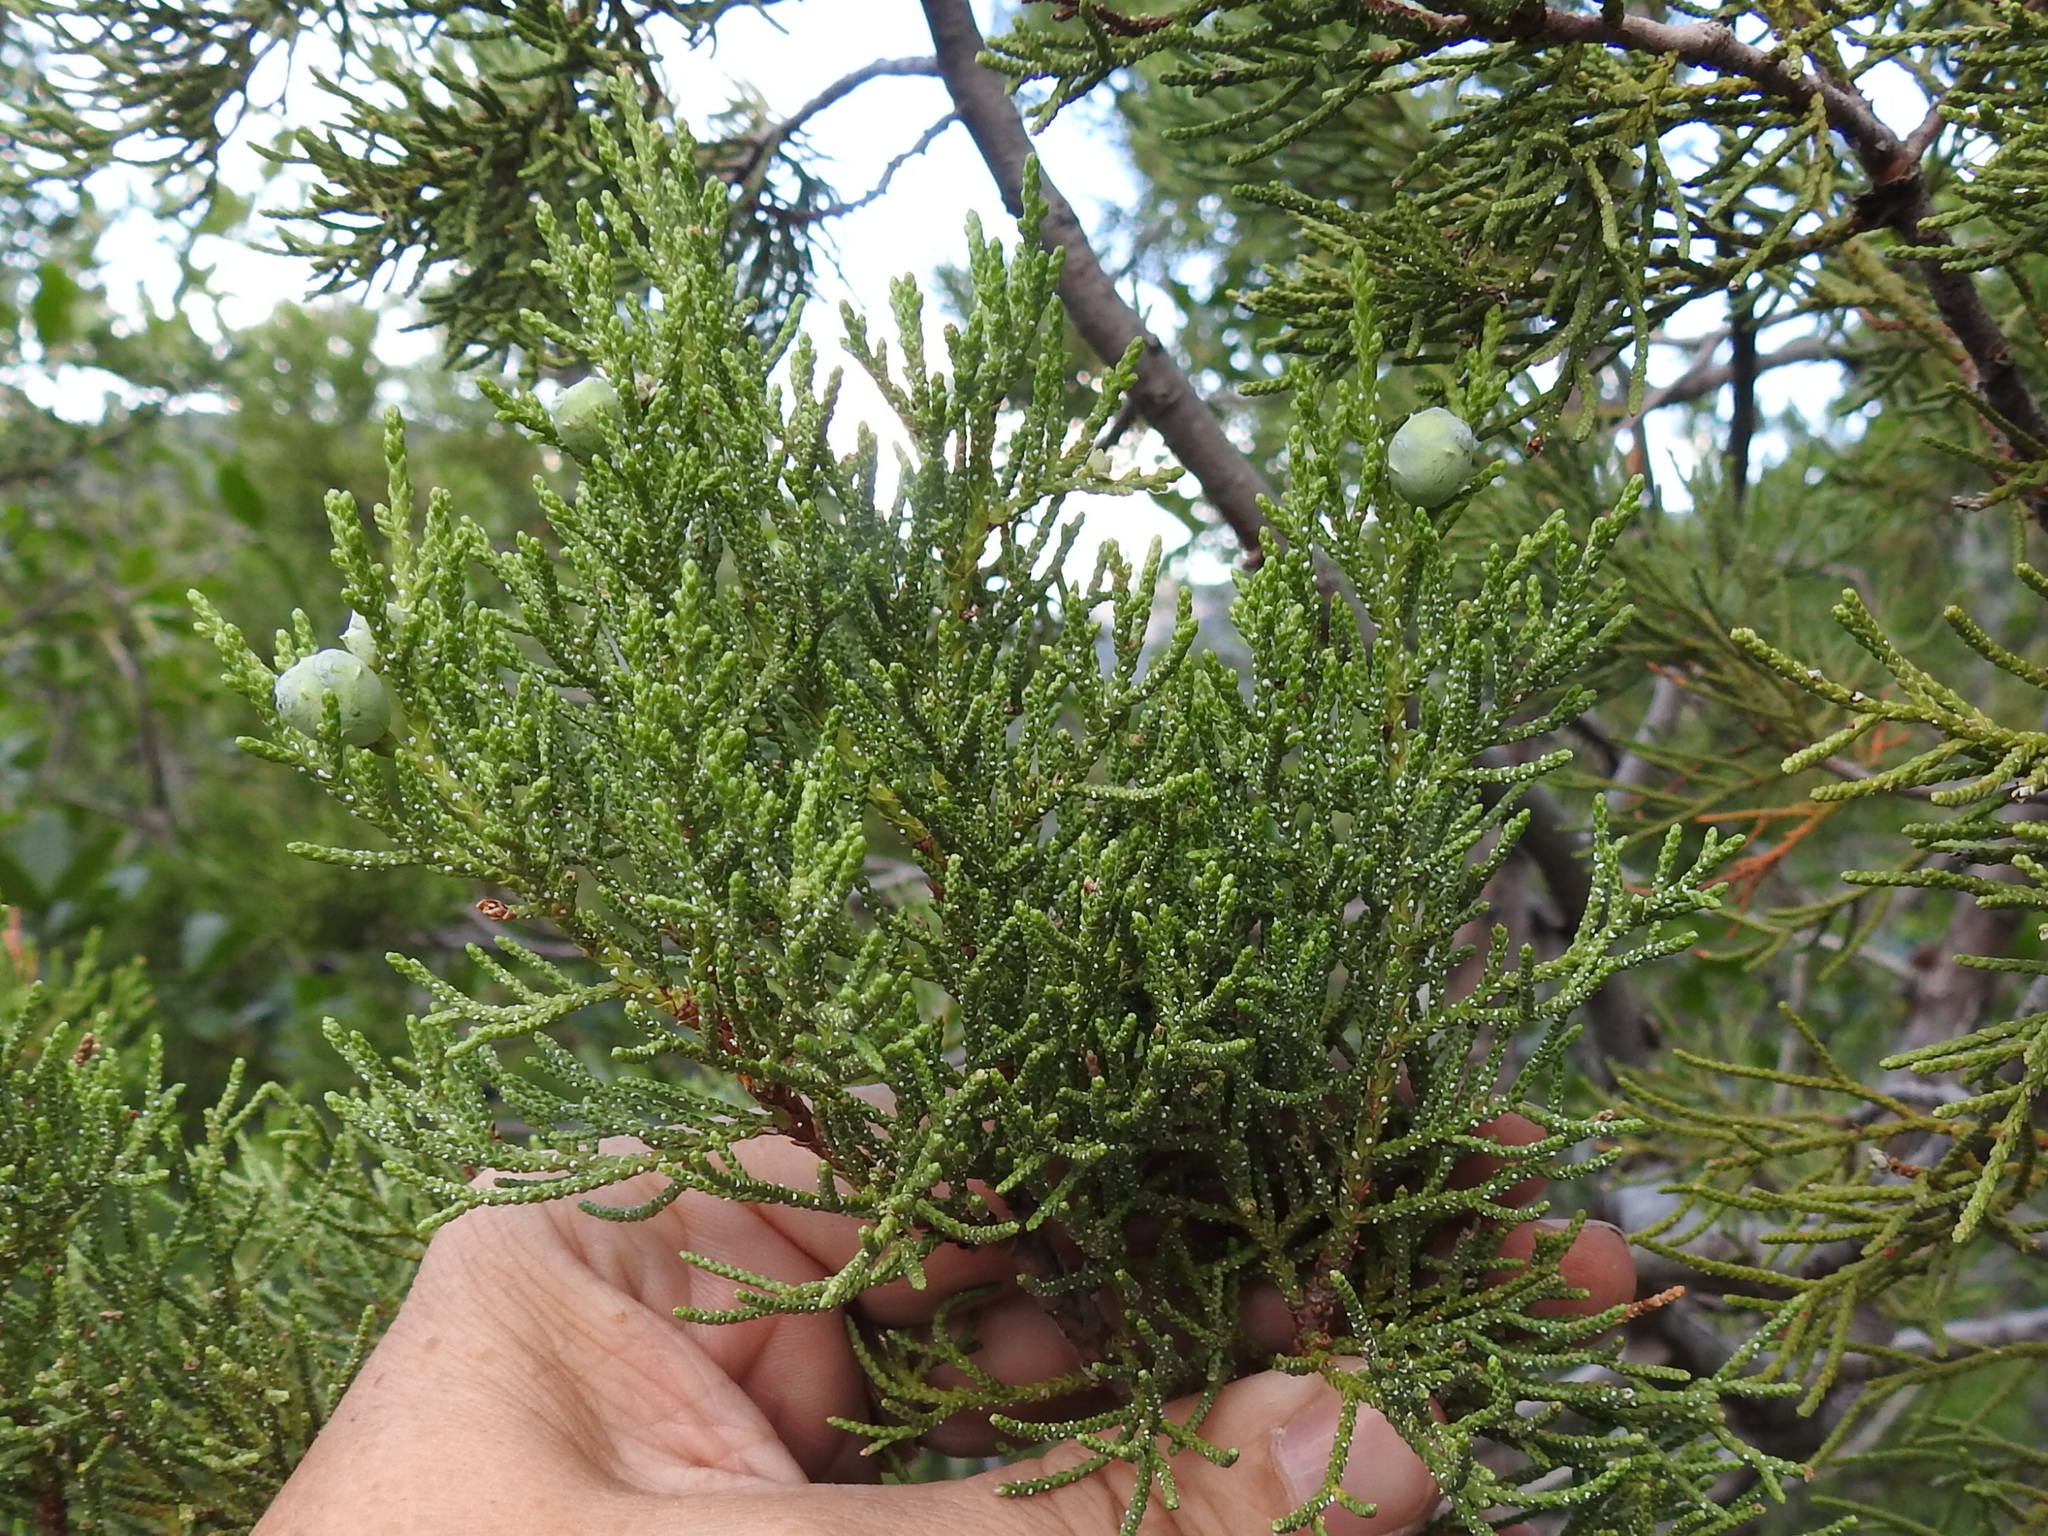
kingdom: Plantae
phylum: Tracheophyta
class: Pinopsida
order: Pinales
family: Cupressaceae
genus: Juniperus
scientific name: Juniperus deppeana
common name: Alligator juniper
